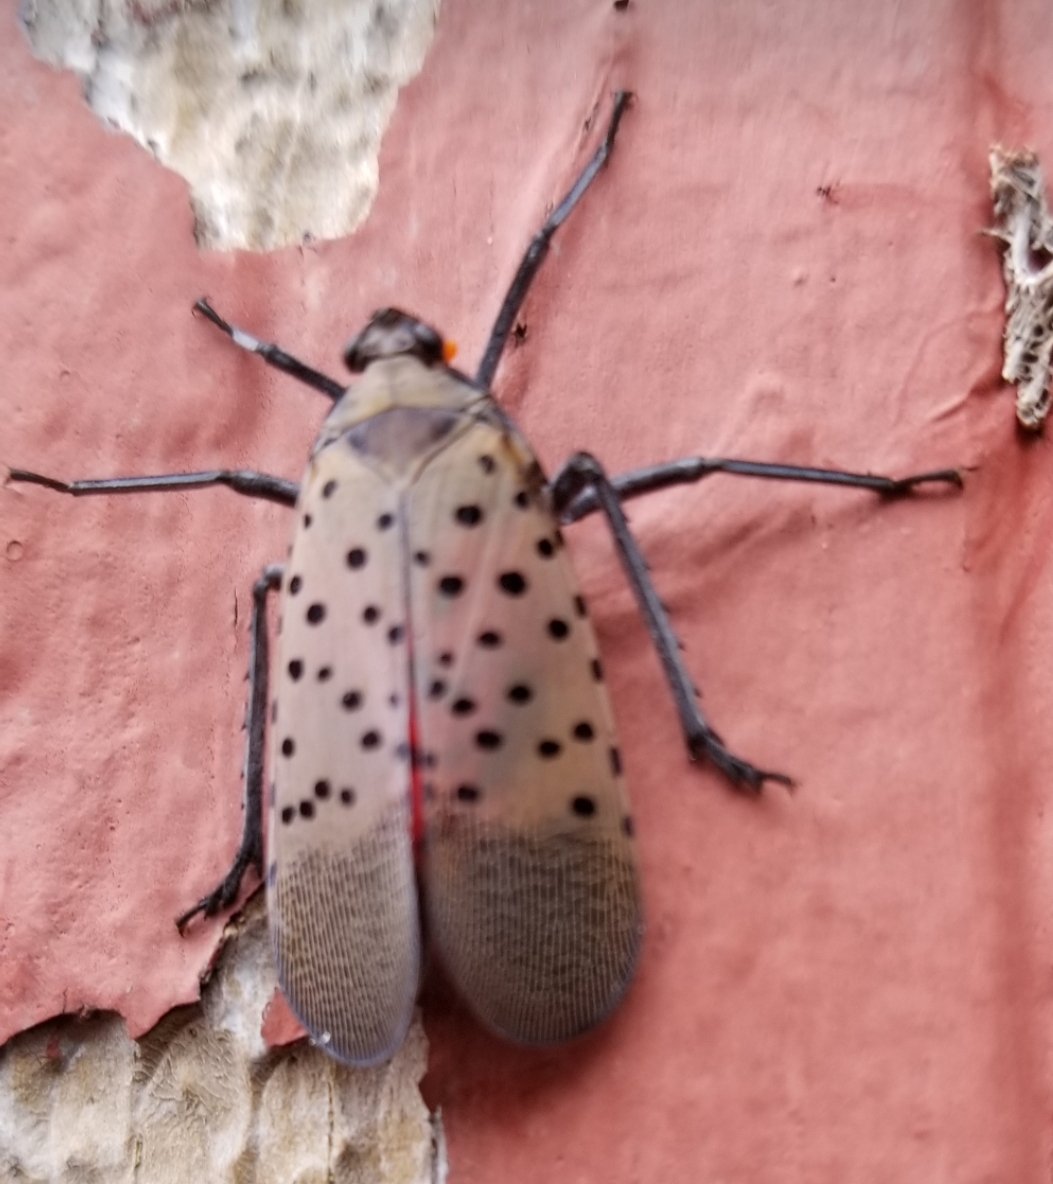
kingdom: Animalia
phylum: Arthropoda
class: Insecta
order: Hemiptera
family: Fulgoridae
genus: Lycorma
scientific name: Lycorma delicatula
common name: Spotted lanternfly
